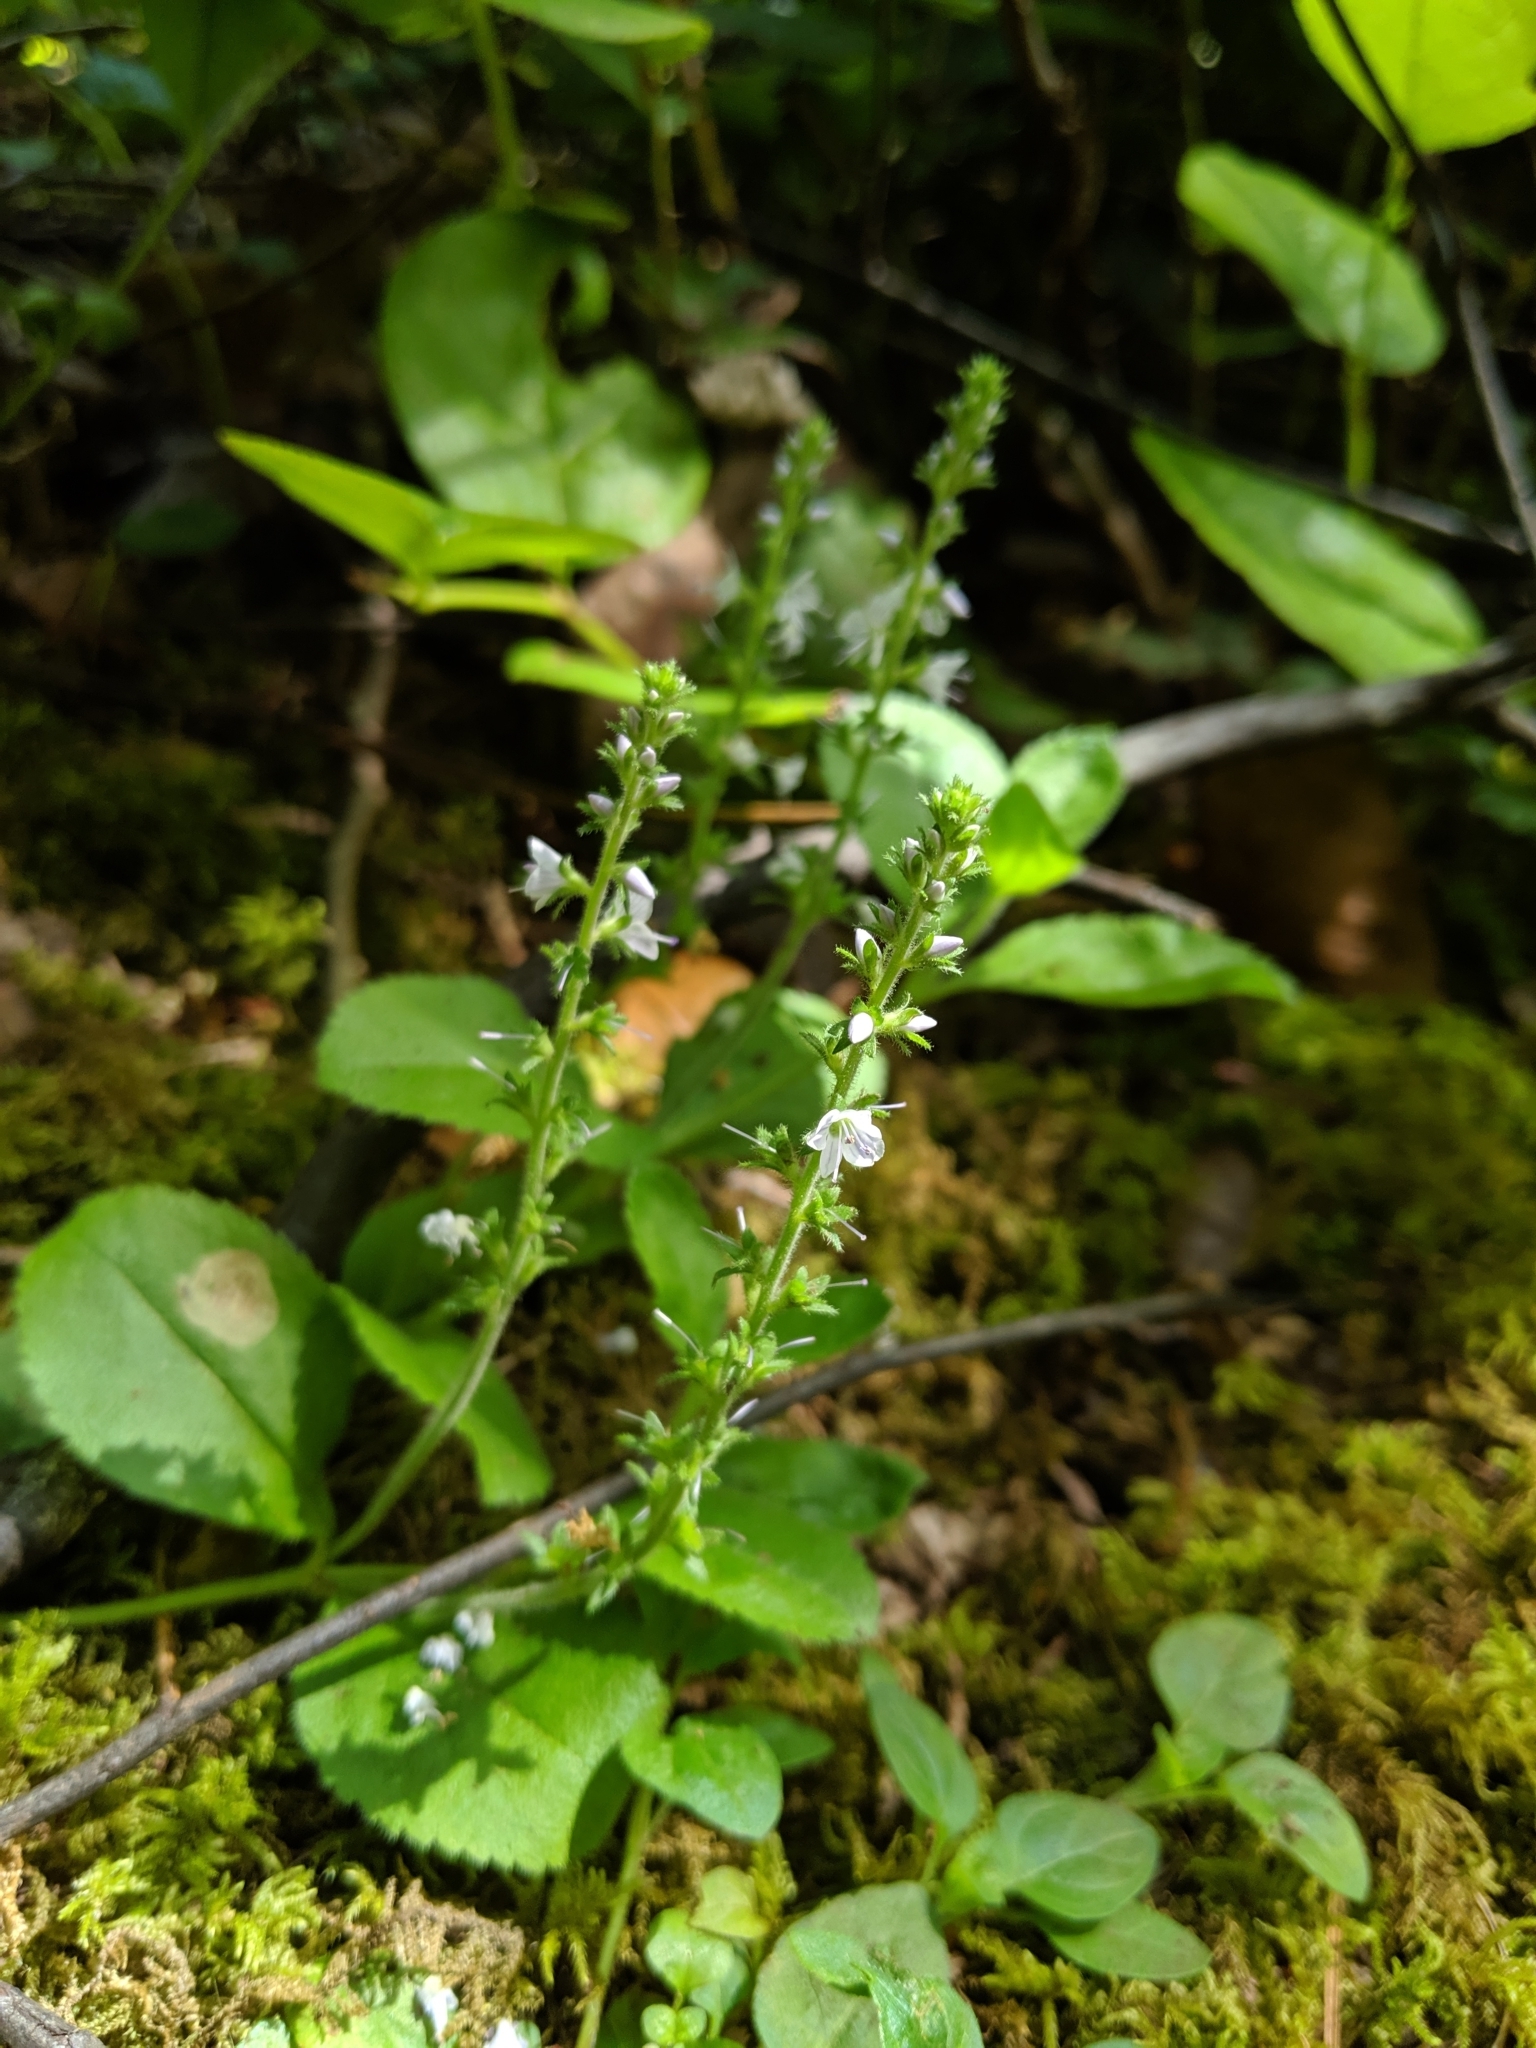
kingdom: Plantae
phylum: Tracheophyta
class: Magnoliopsida
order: Lamiales
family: Plantaginaceae
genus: Veronica
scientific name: Veronica officinalis
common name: Common speedwell
